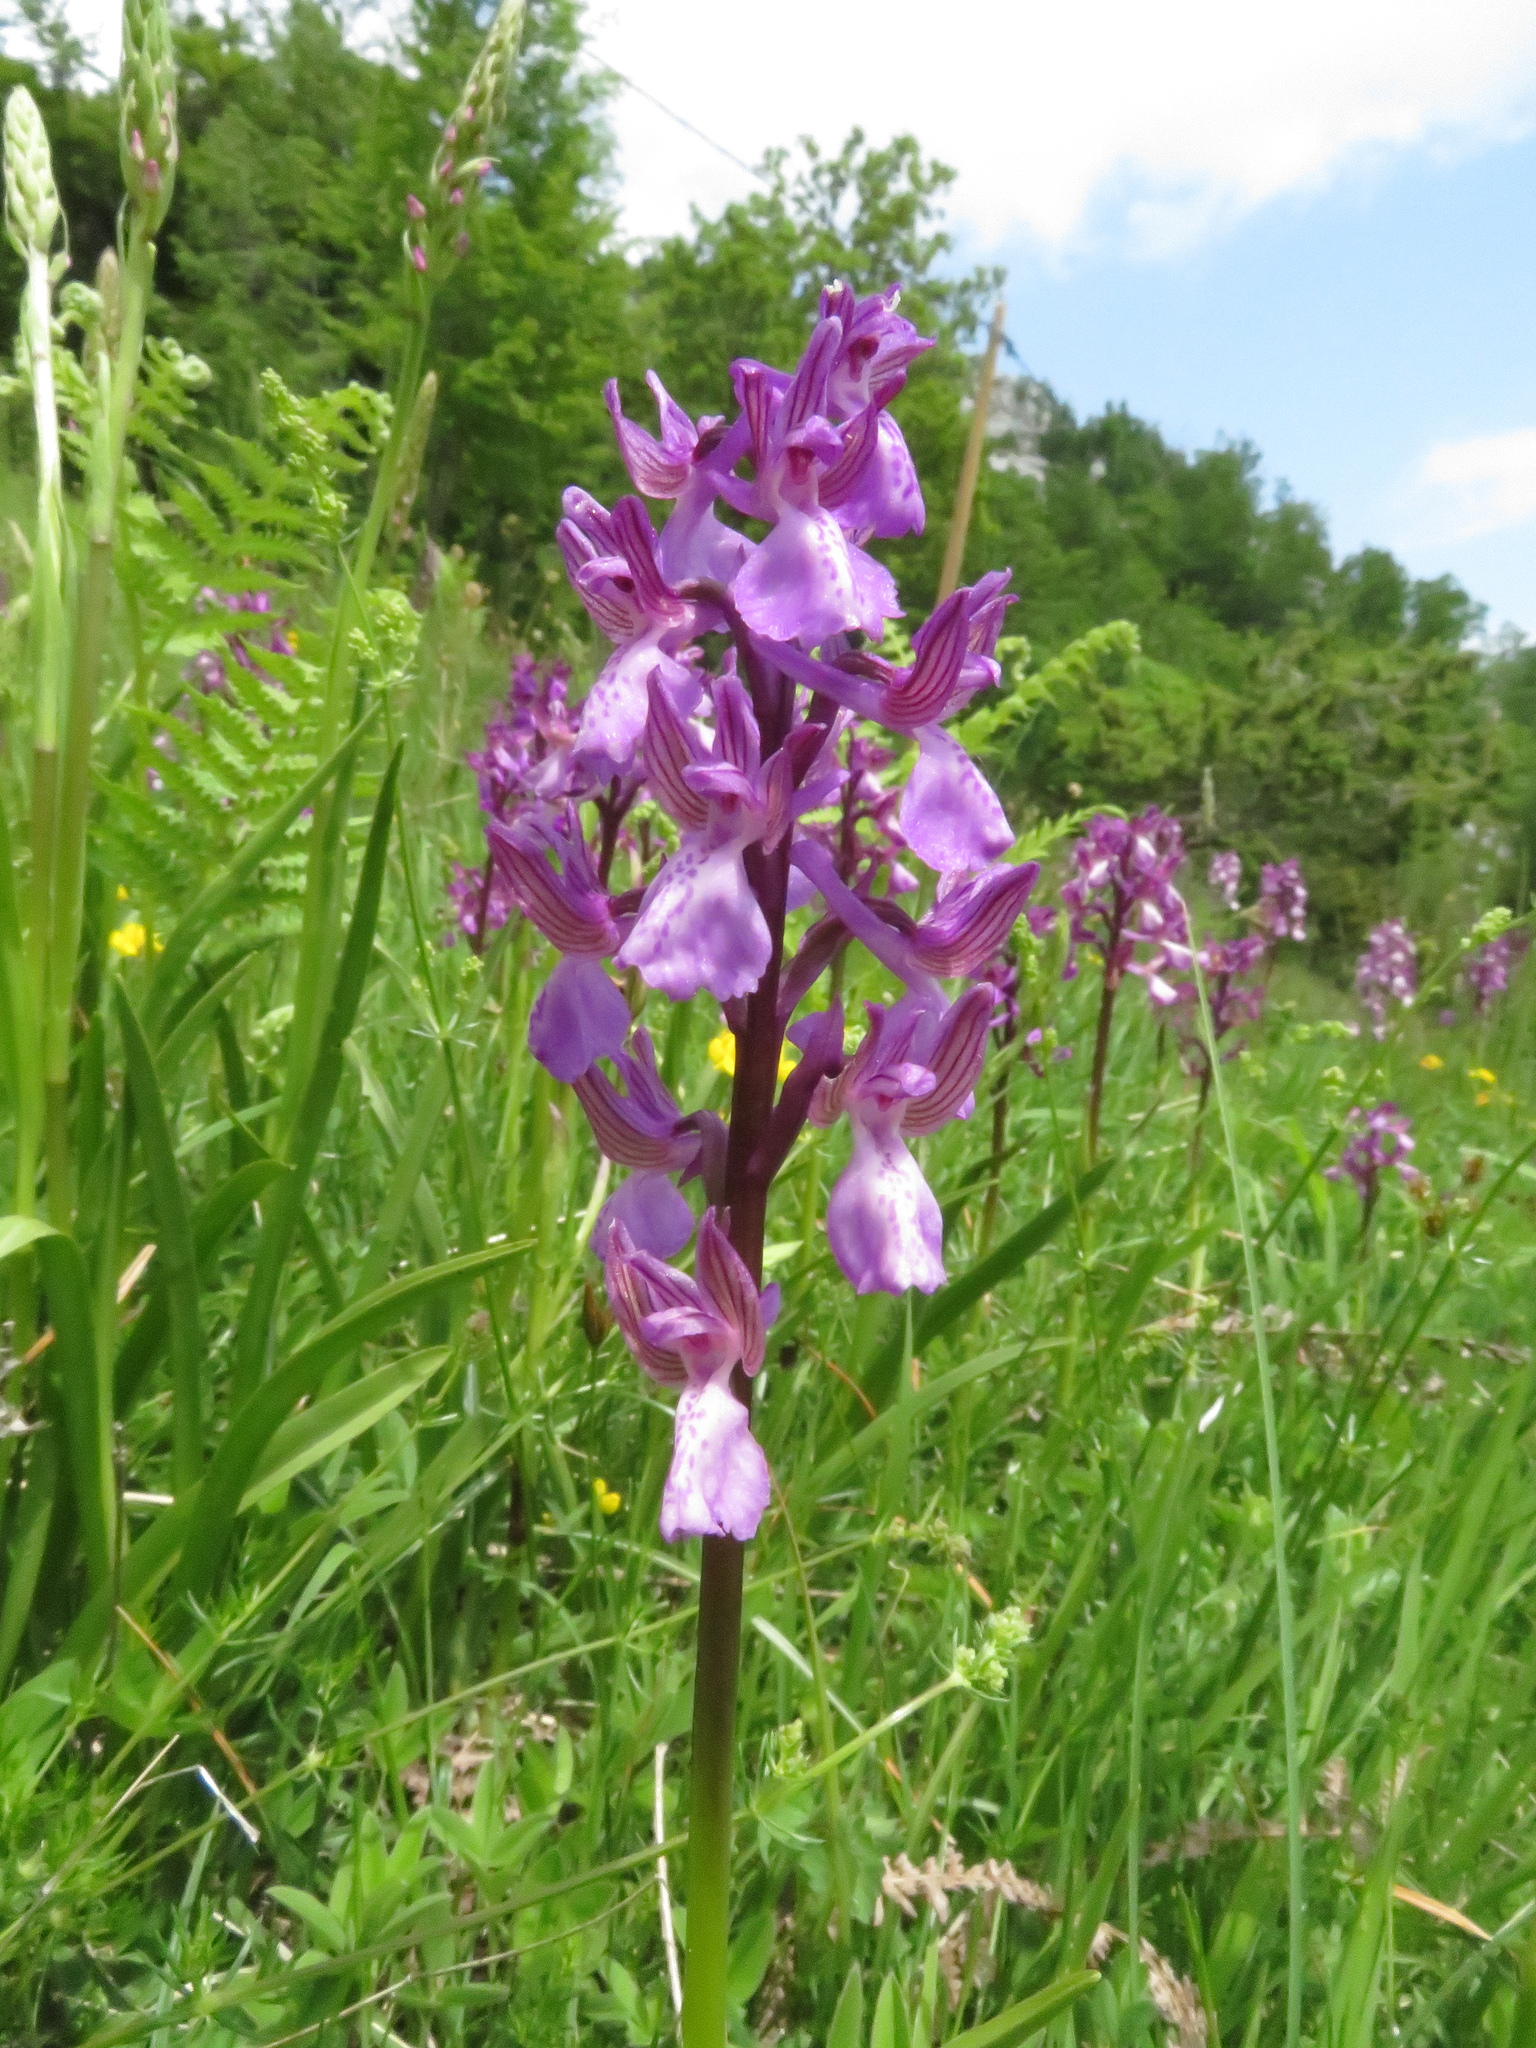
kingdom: Plantae
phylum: Tracheophyta
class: Liliopsida
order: Asparagales
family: Orchidaceae
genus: Anacamptis
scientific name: Anacamptis morio
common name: Green-winged orchid
